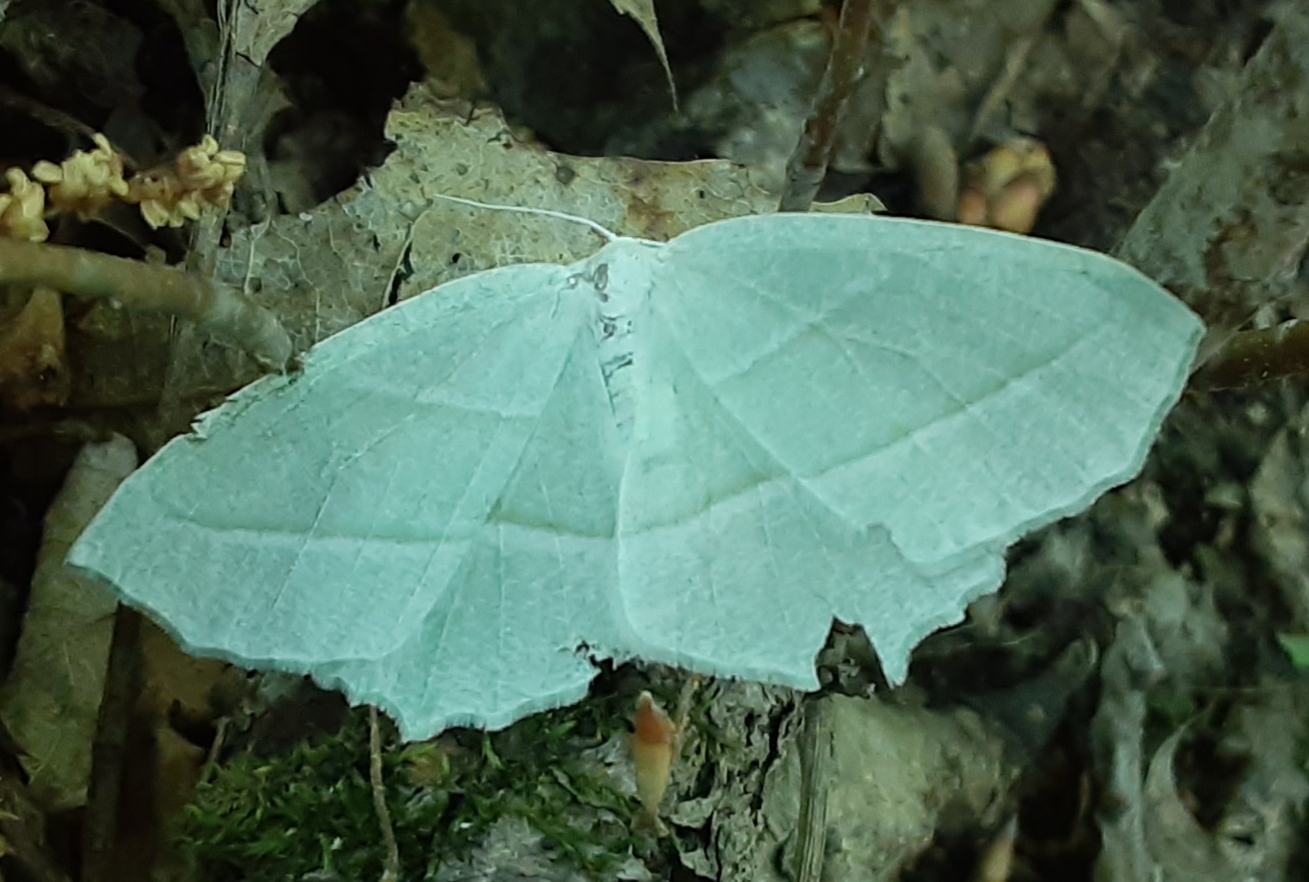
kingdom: Animalia
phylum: Arthropoda
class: Insecta
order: Lepidoptera
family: Geometridae
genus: Campaea
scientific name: Campaea perlata
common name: Fringed looper
